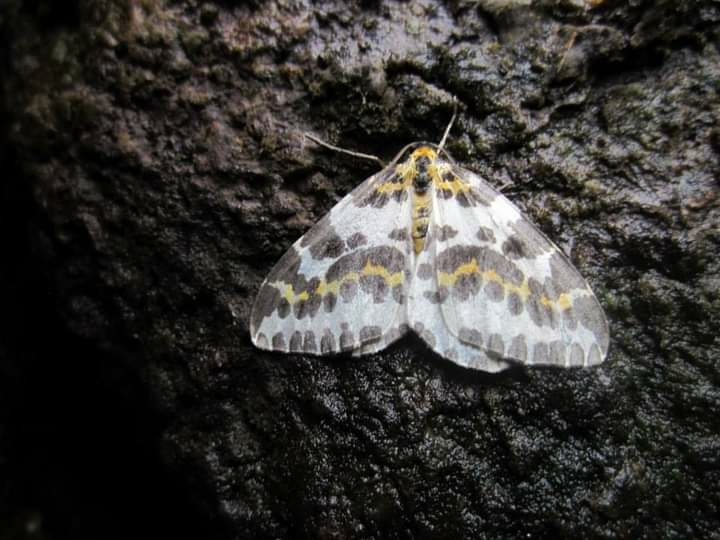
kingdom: Animalia
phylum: Arthropoda
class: Insecta
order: Lepidoptera
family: Geometridae
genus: Abraxas
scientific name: Abraxas grossulariata
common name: Magpie
